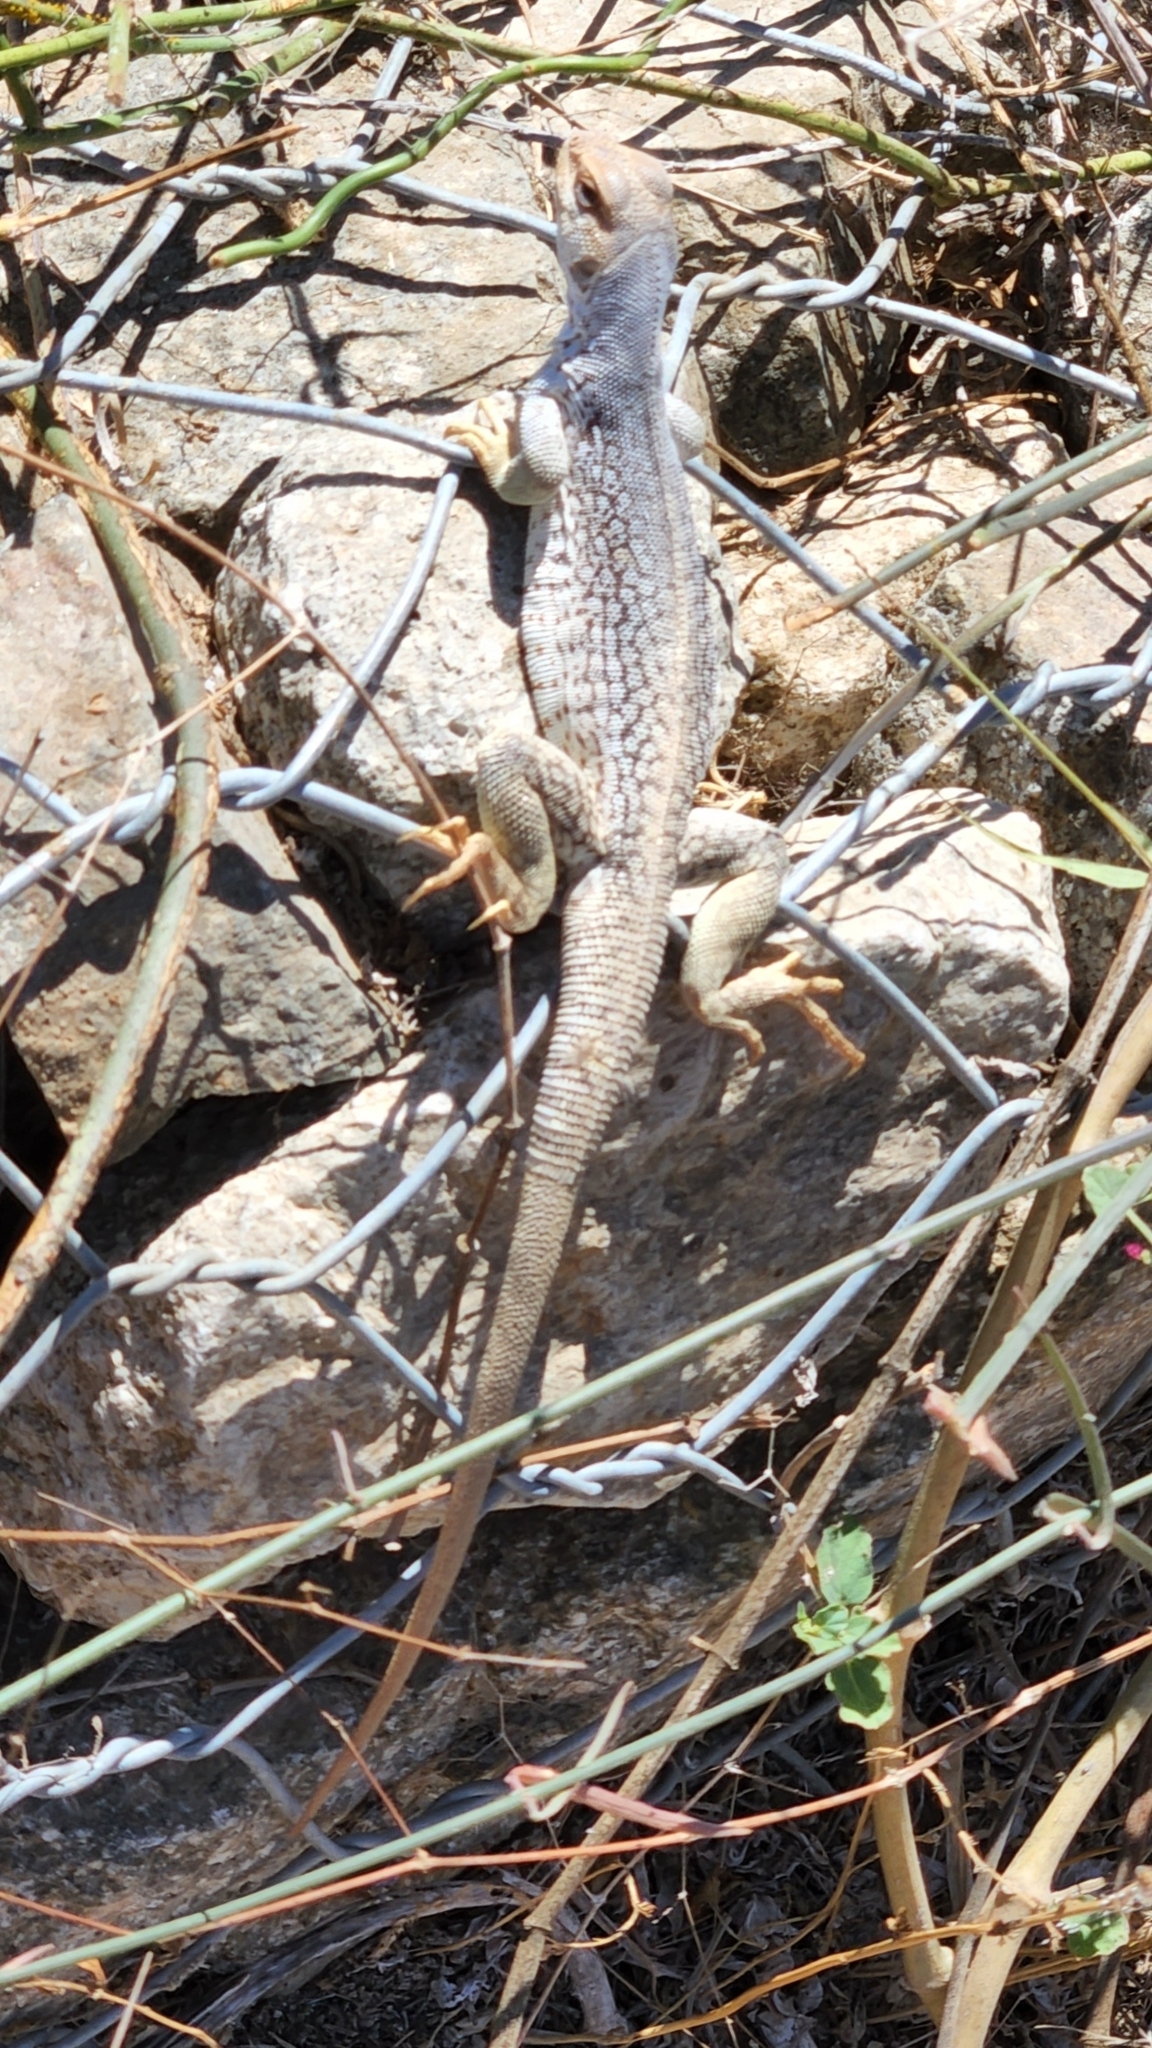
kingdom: Animalia
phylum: Chordata
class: Squamata
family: Iguanidae
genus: Dipsosaurus
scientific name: Dipsosaurus dorsalis
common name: Desert iguana
